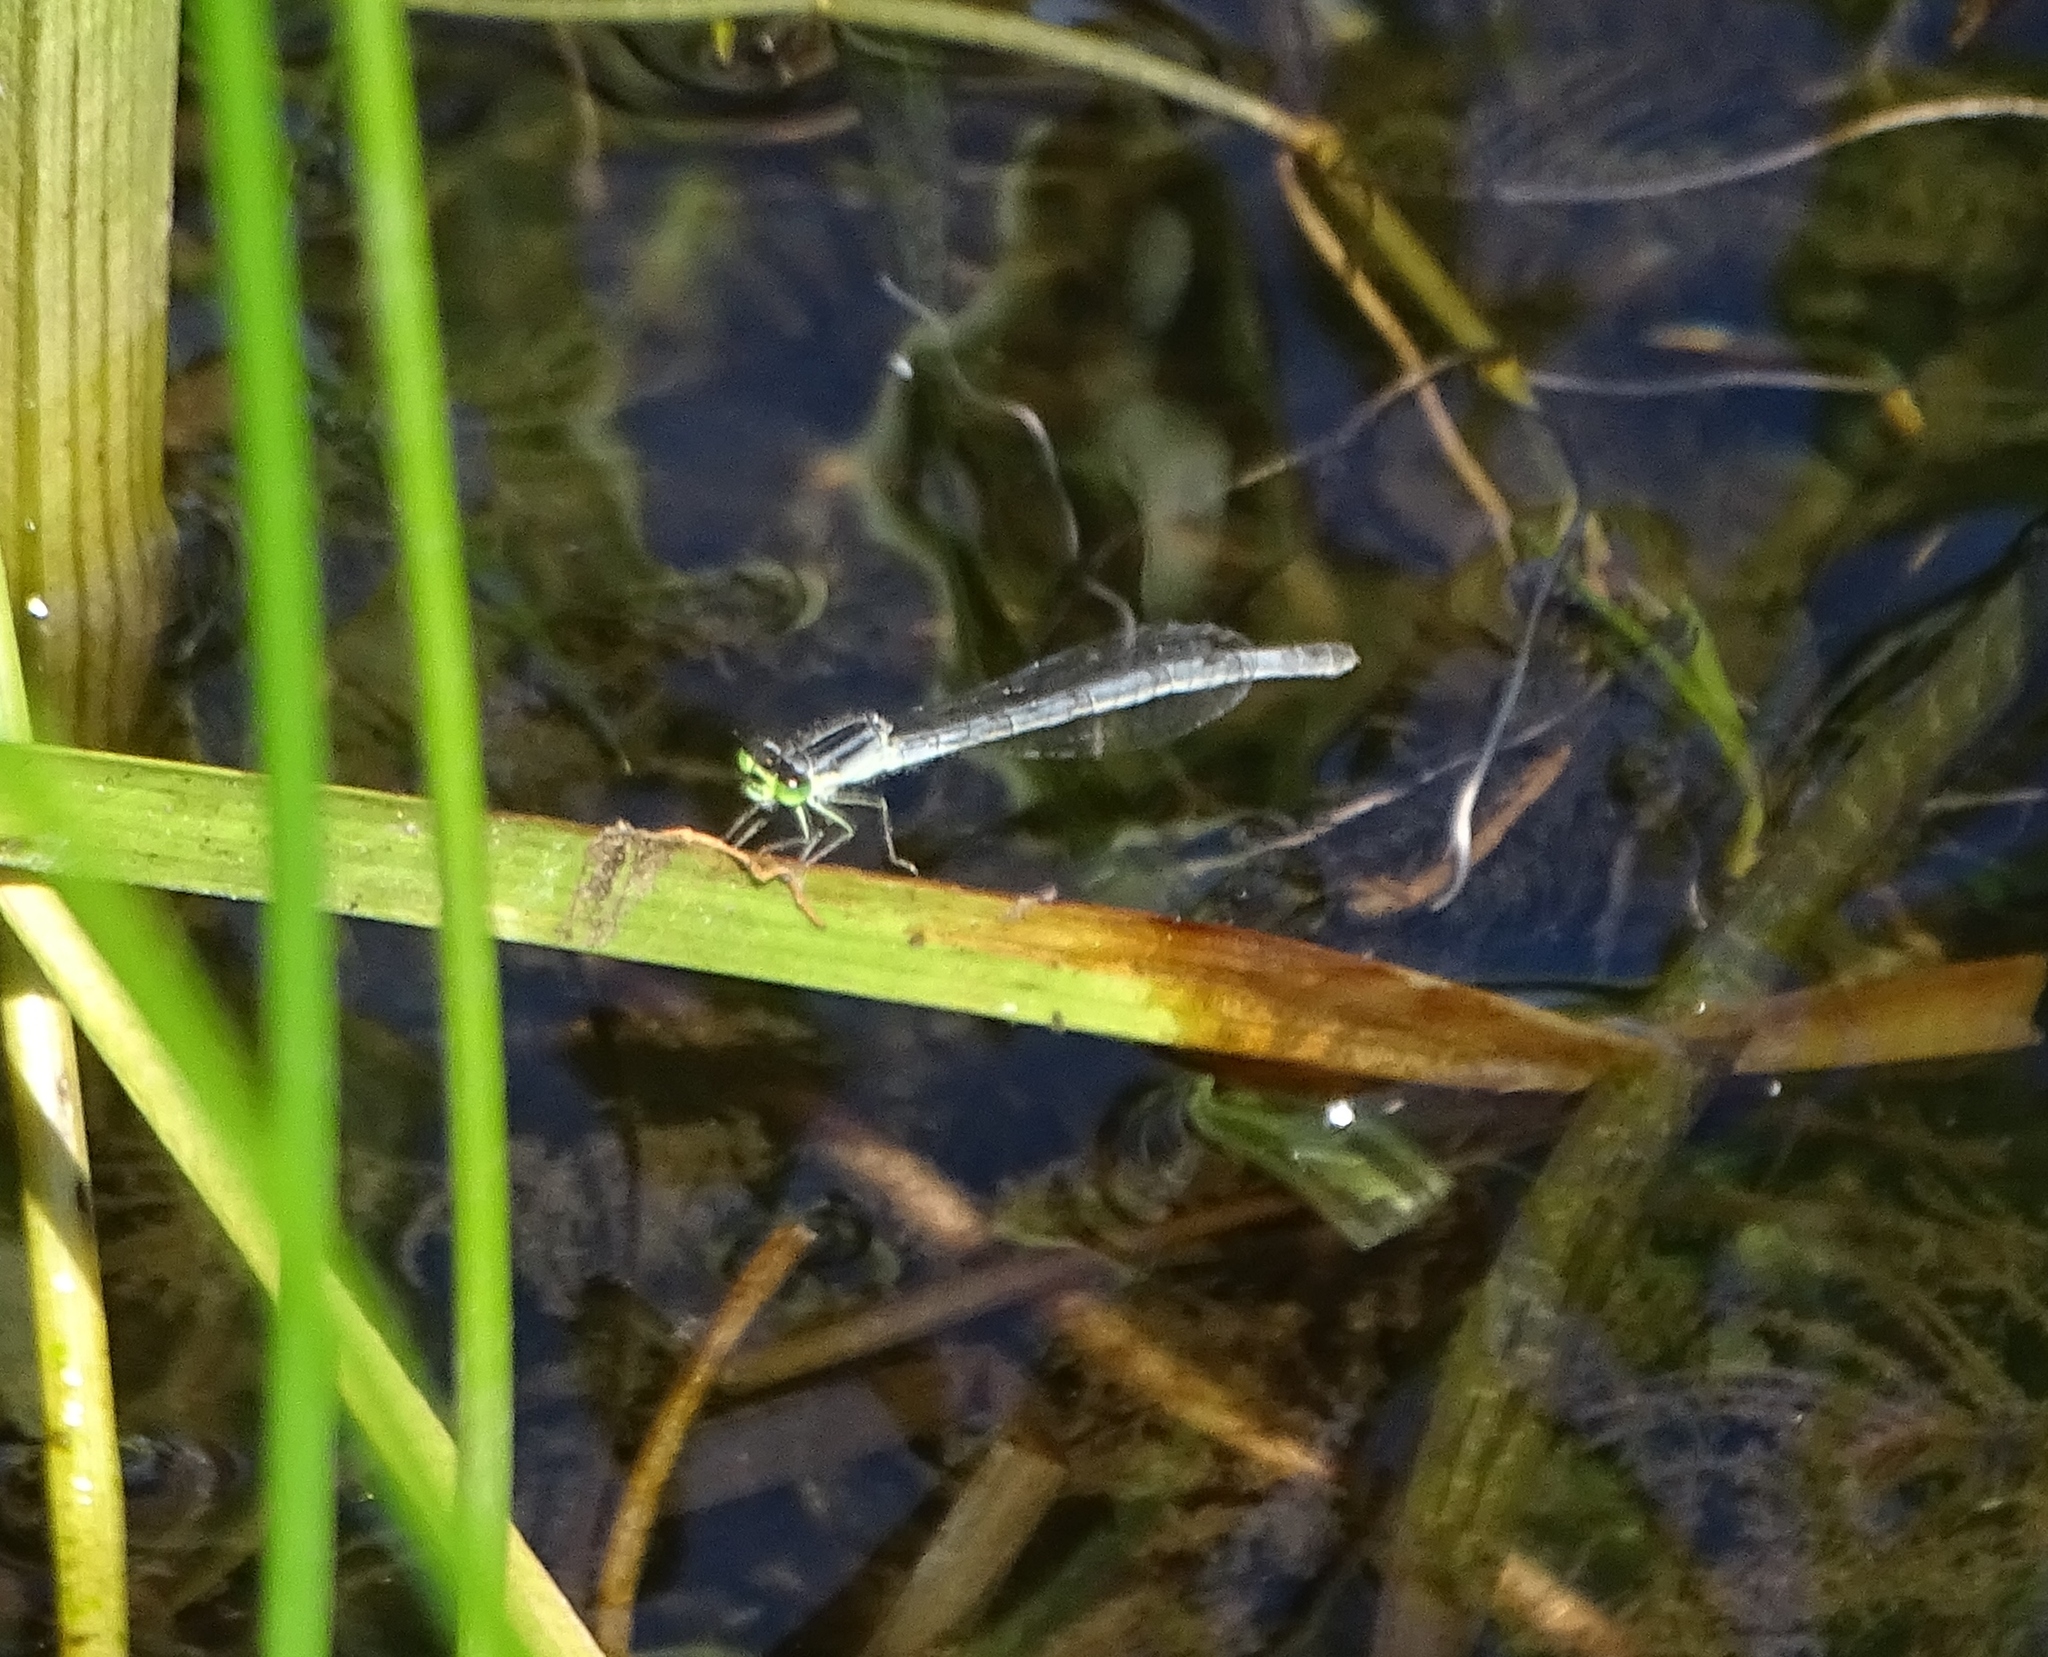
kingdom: Animalia
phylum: Arthropoda
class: Insecta
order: Odonata
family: Coenagrionidae
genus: Ischnura
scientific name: Ischnura verticalis
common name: Eastern forktail
